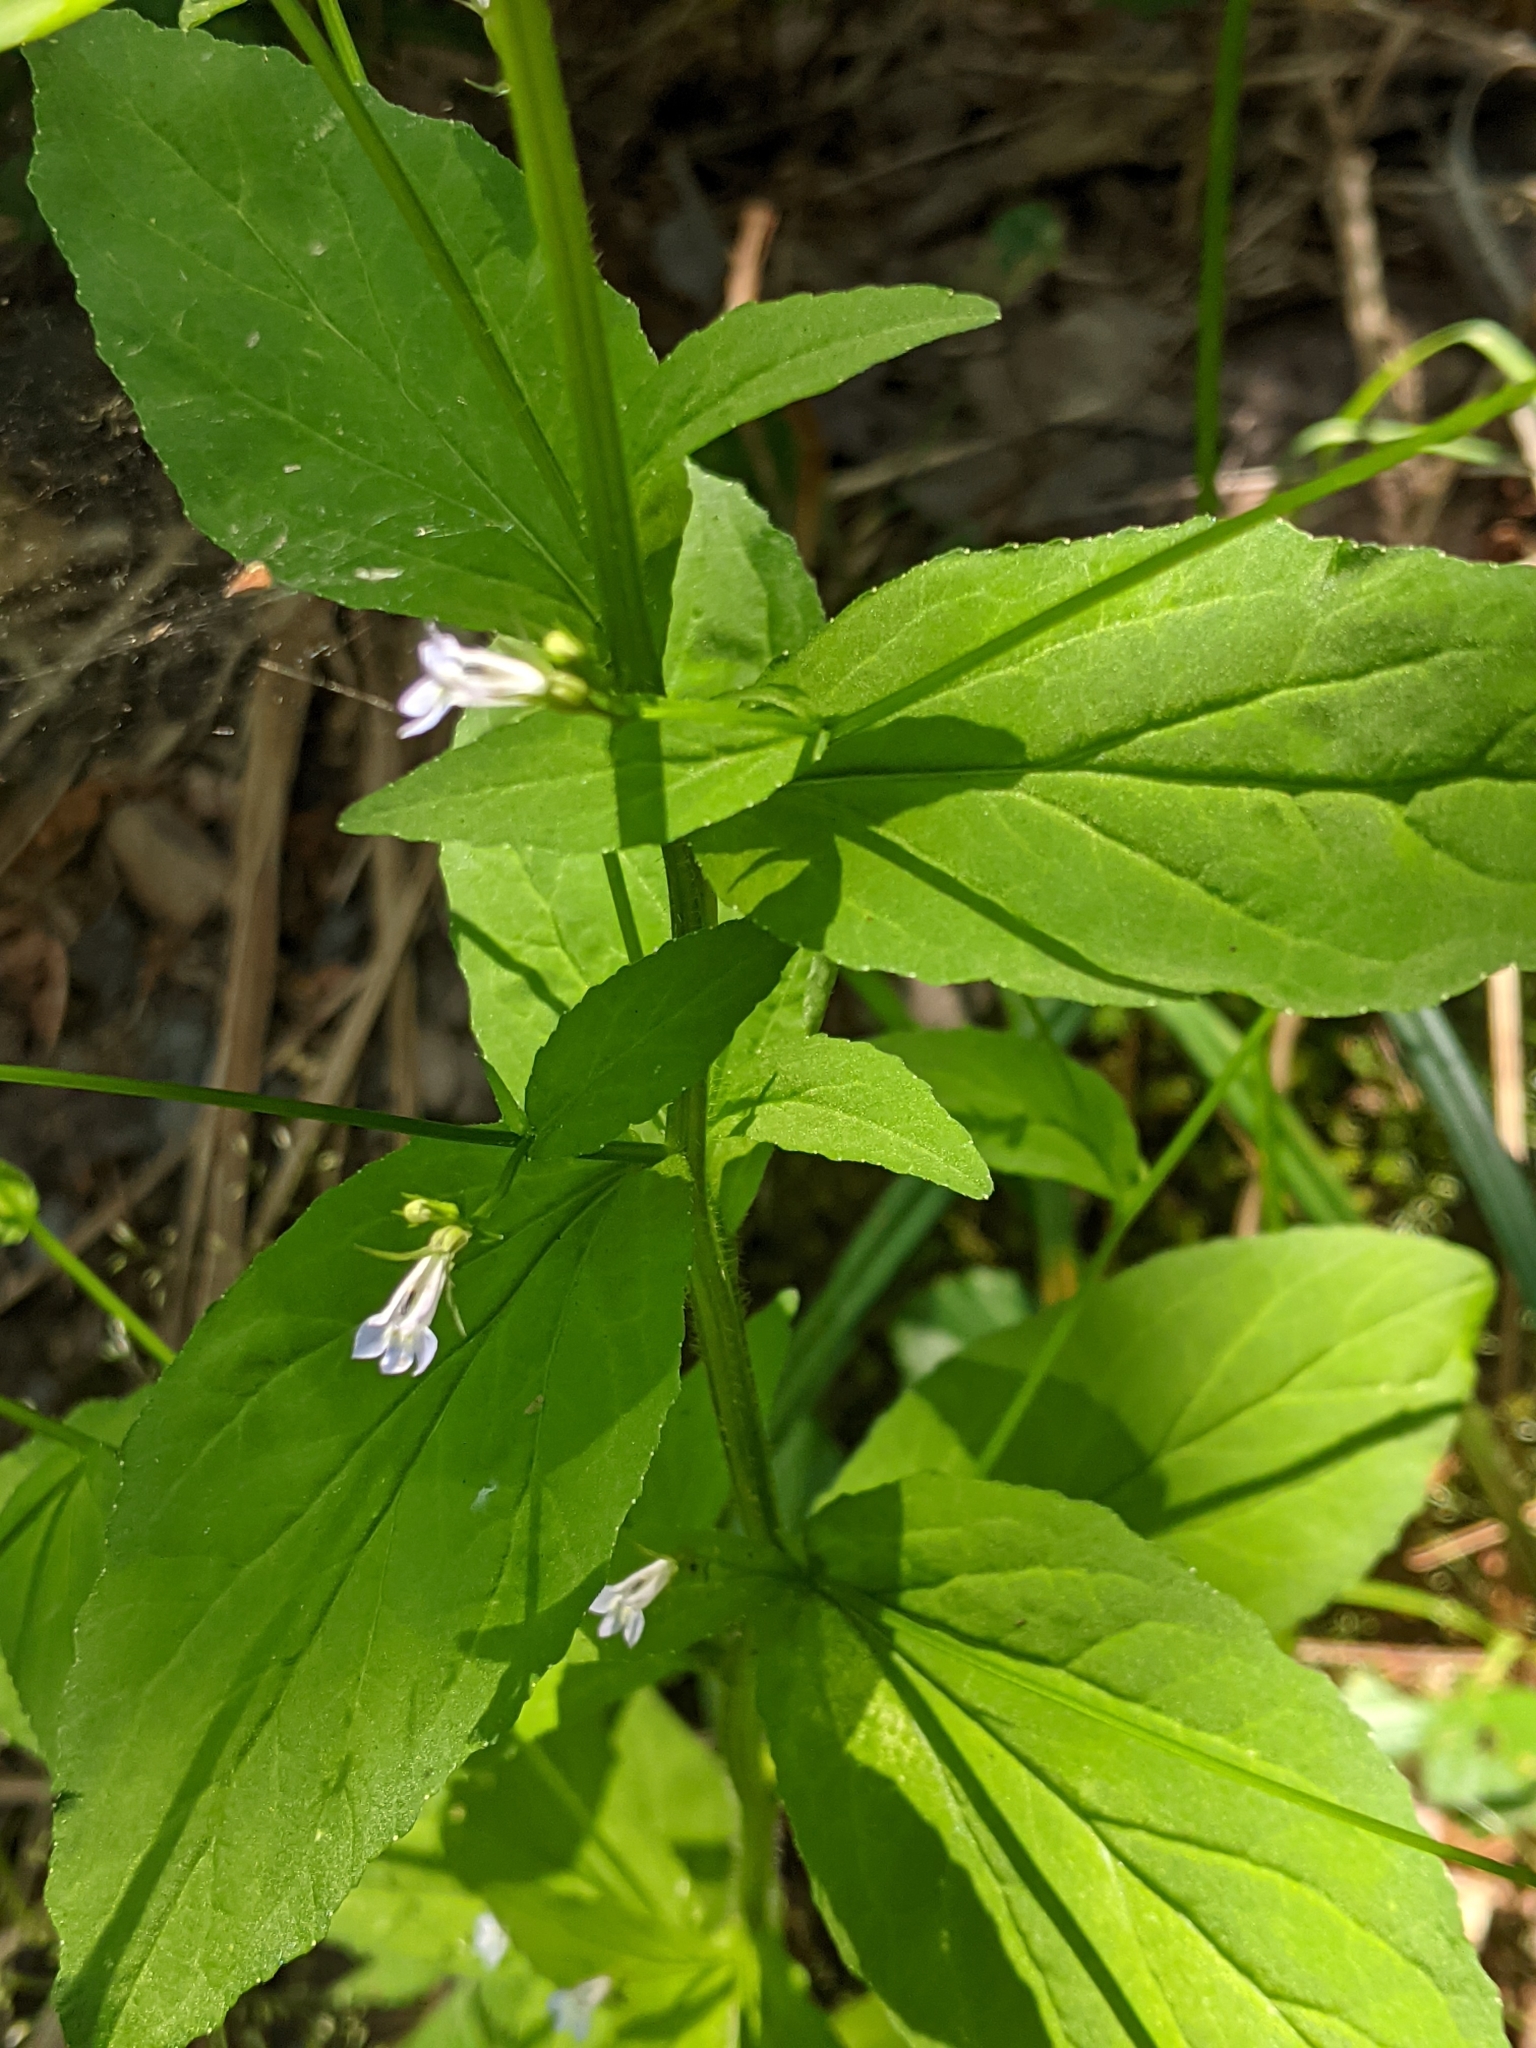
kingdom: Plantae
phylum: Tracheophyta
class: Magnoliopsida
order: Asterales
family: Campanulaceae
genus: Lobelia
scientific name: Lobelia inflata
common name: Indian tobacco
